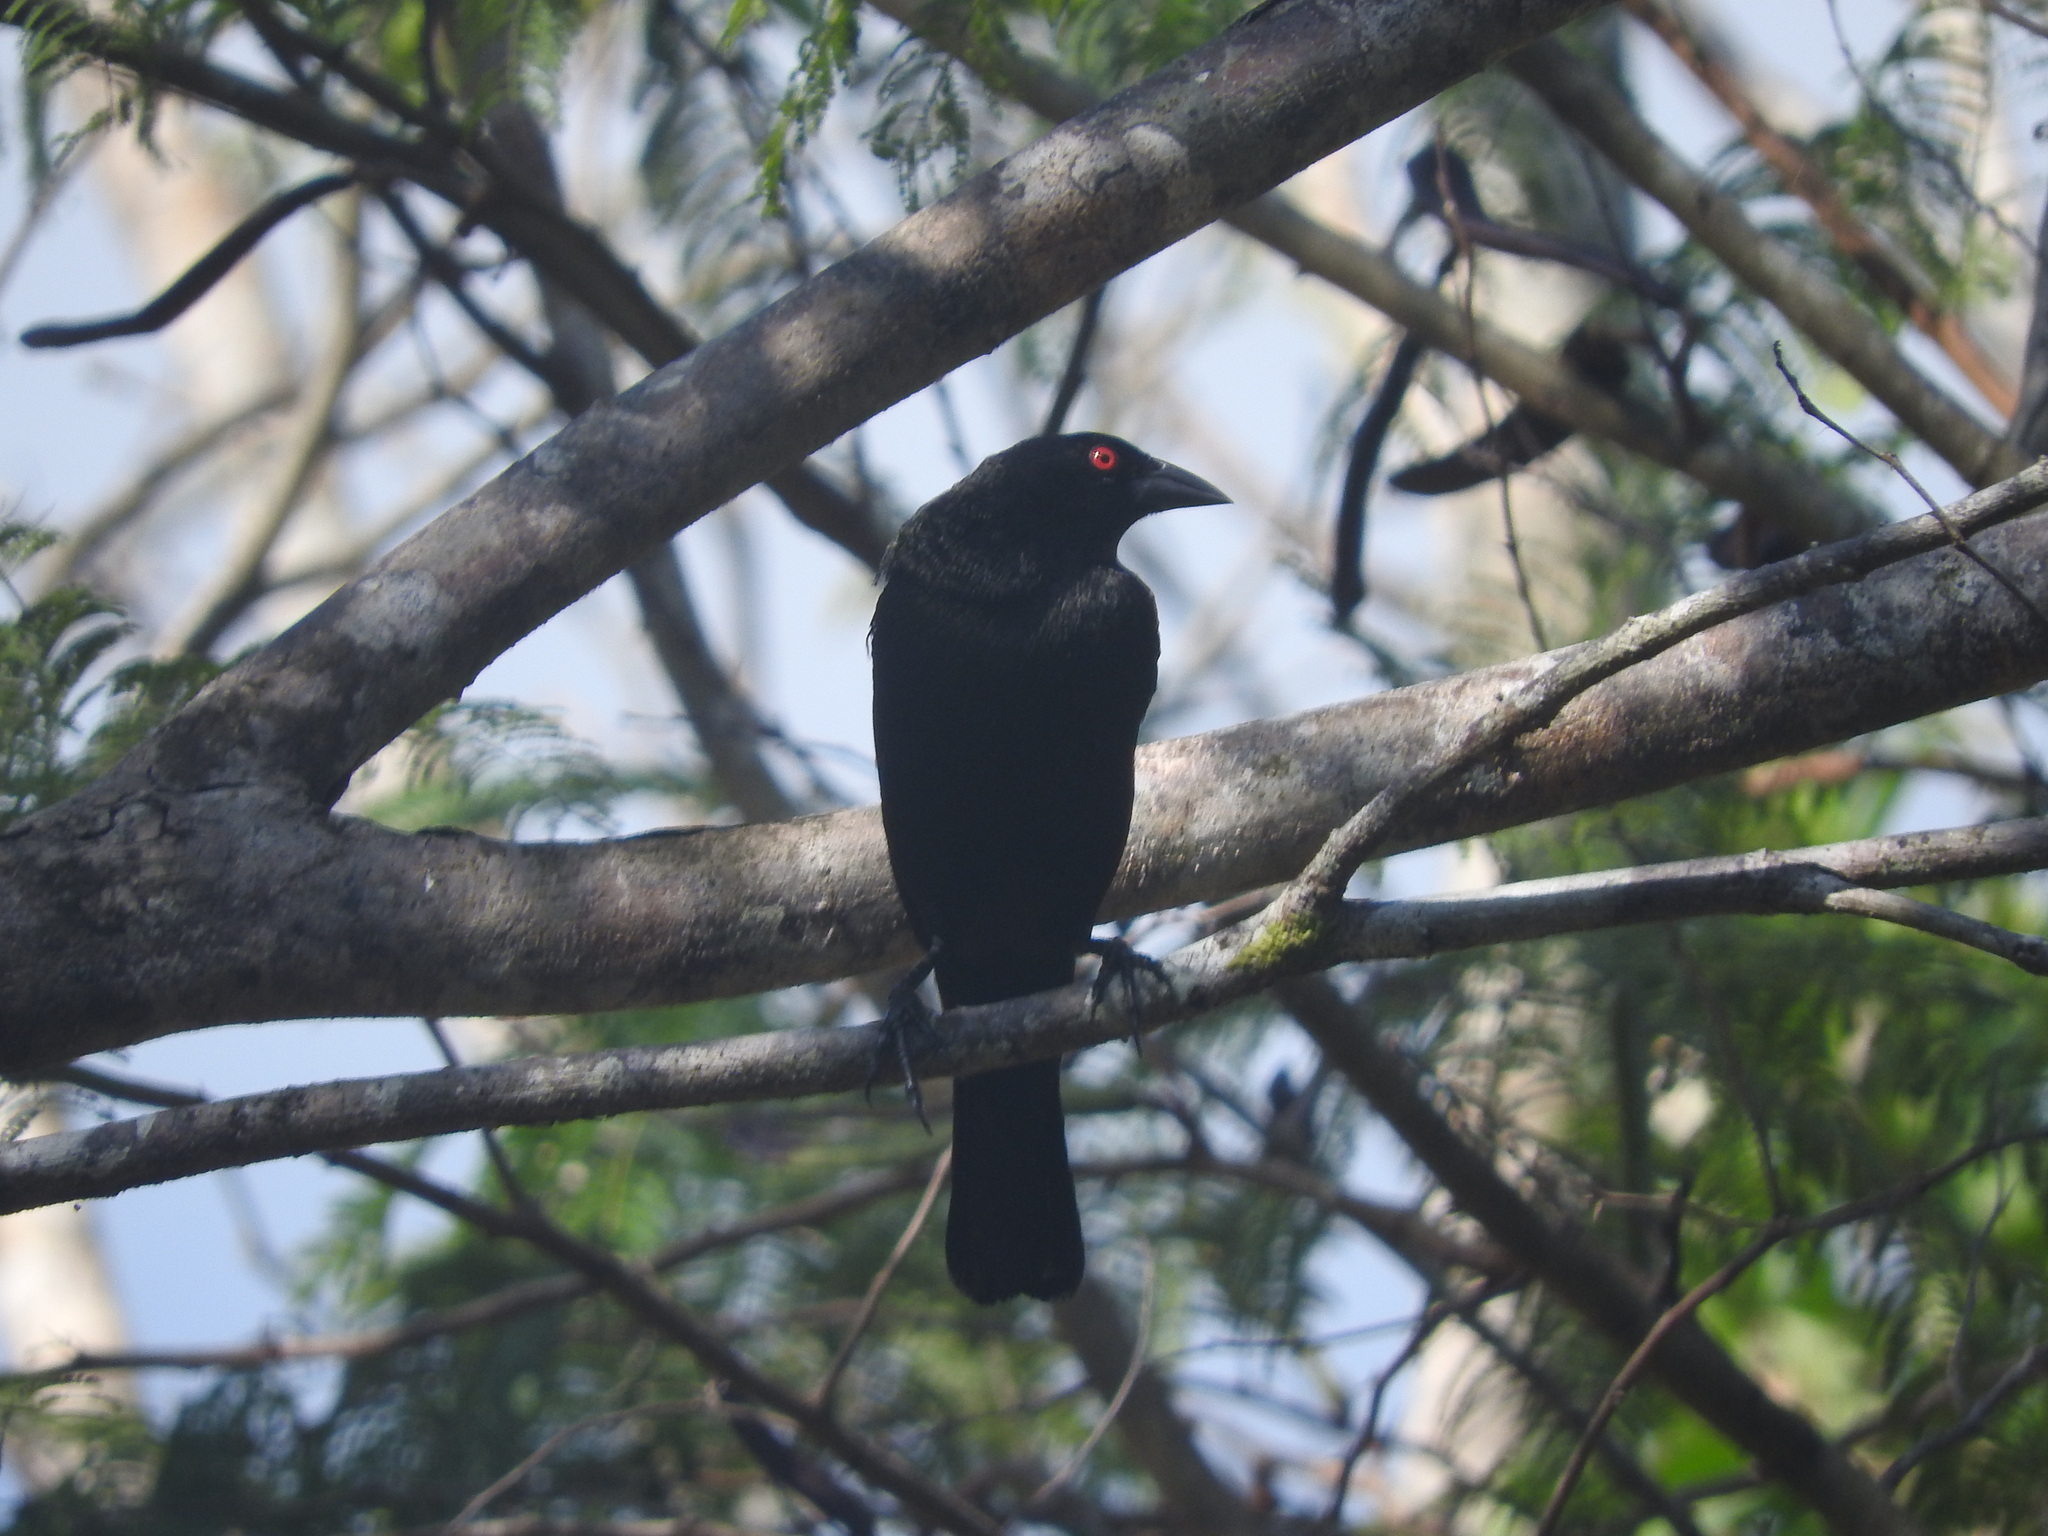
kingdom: Animalia
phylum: Chordata
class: Aves
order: Passeriformes
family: Icteridae
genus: Molothrus
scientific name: Molothrus aeneus
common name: Bronzed cowbird
